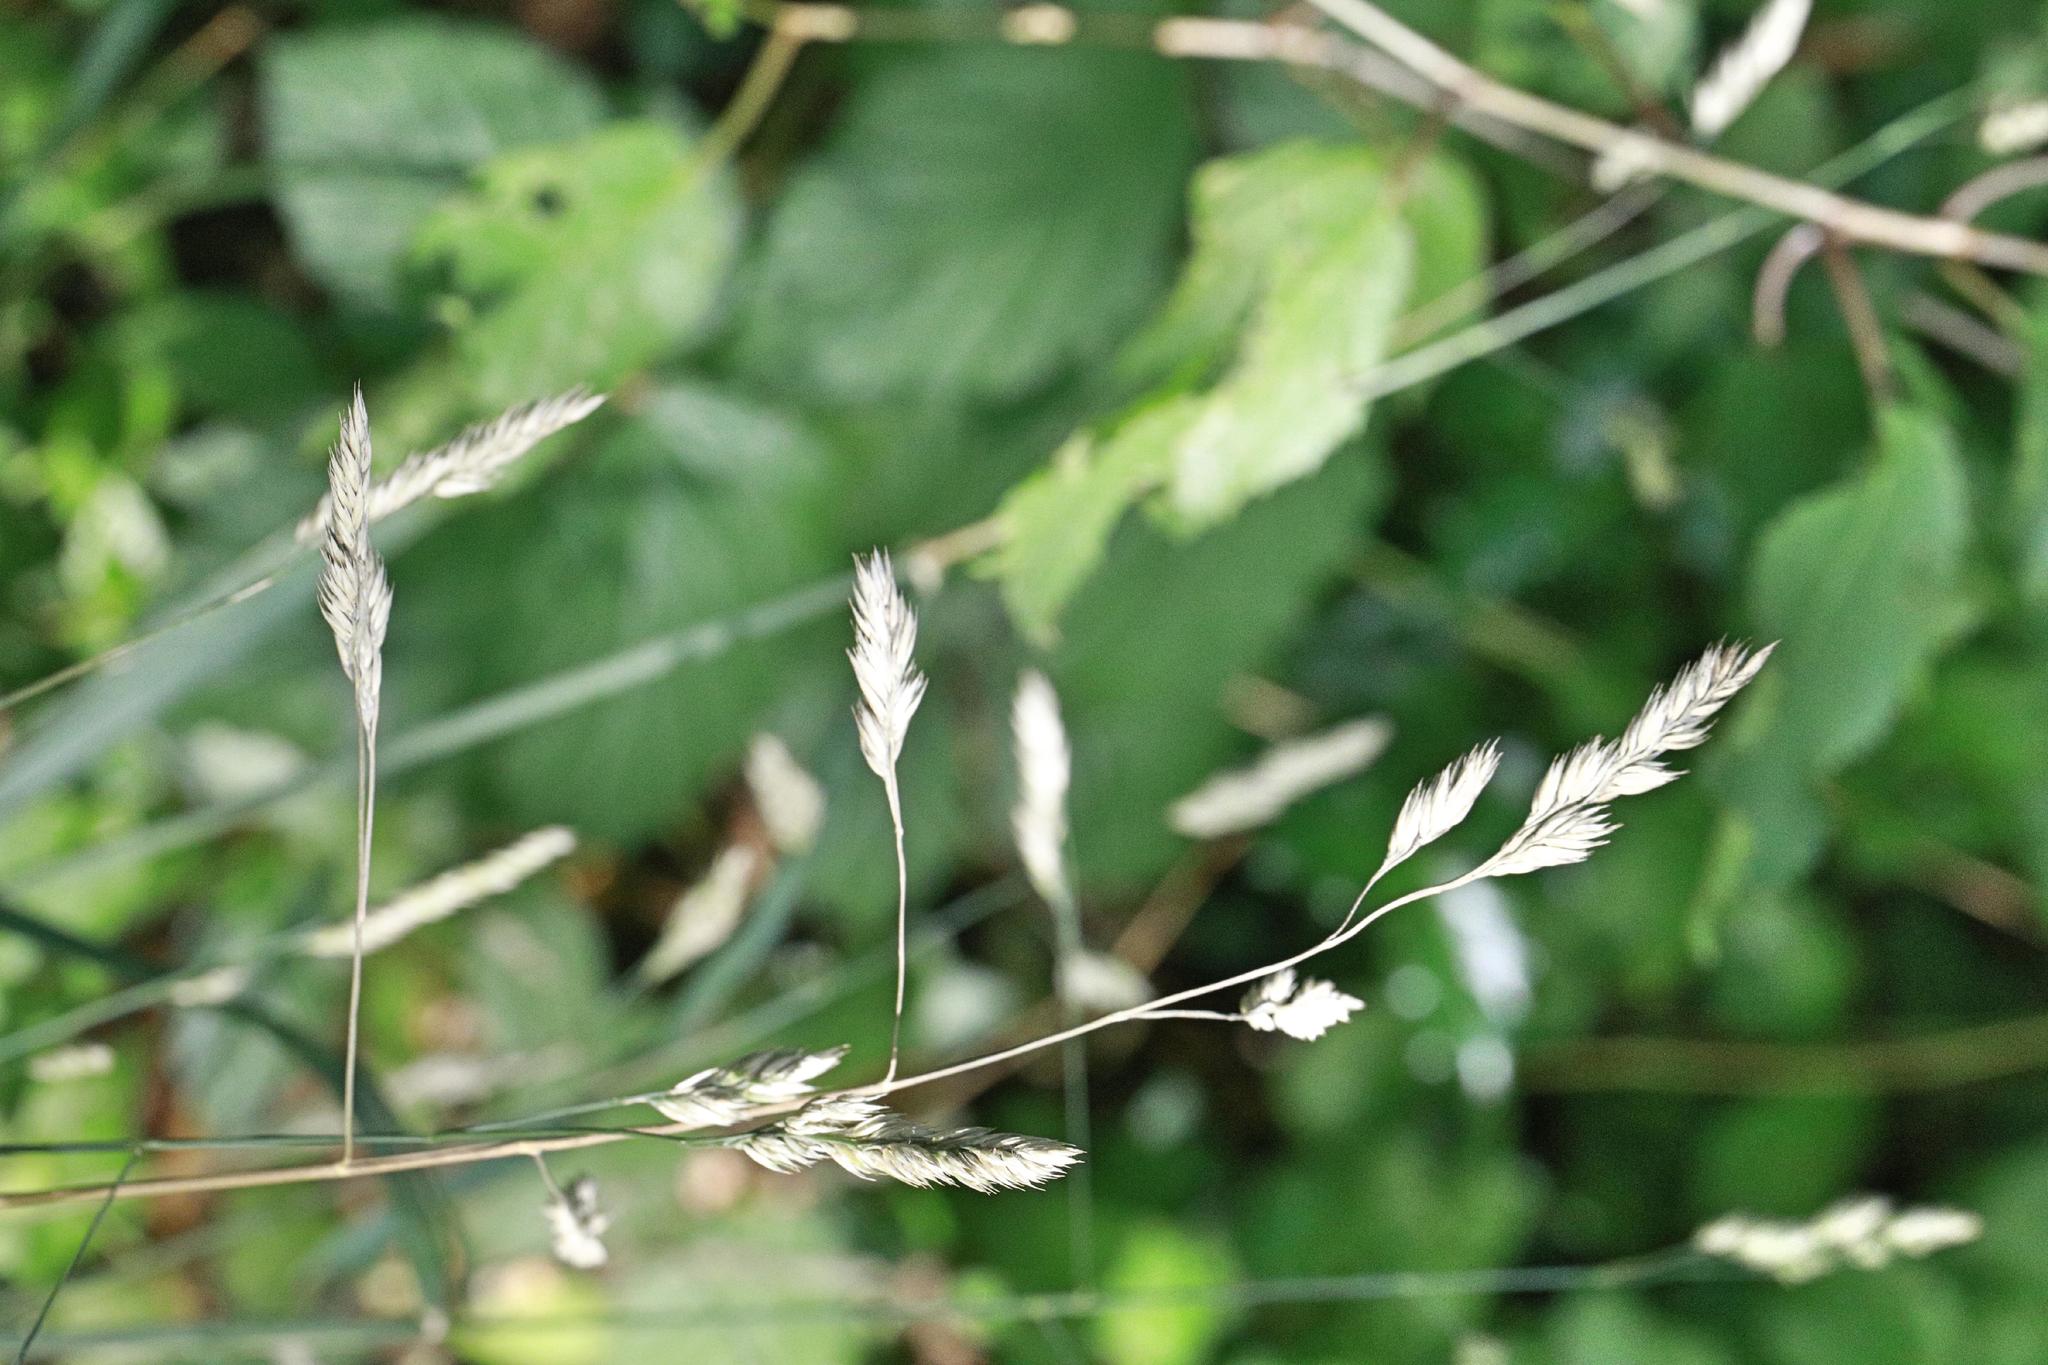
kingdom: Plantae
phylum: Tracheophyta
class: Liliopsida
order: Poales
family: Poaceae
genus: Dactylis
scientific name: Dactylis glomerata
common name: Orchardgrass
